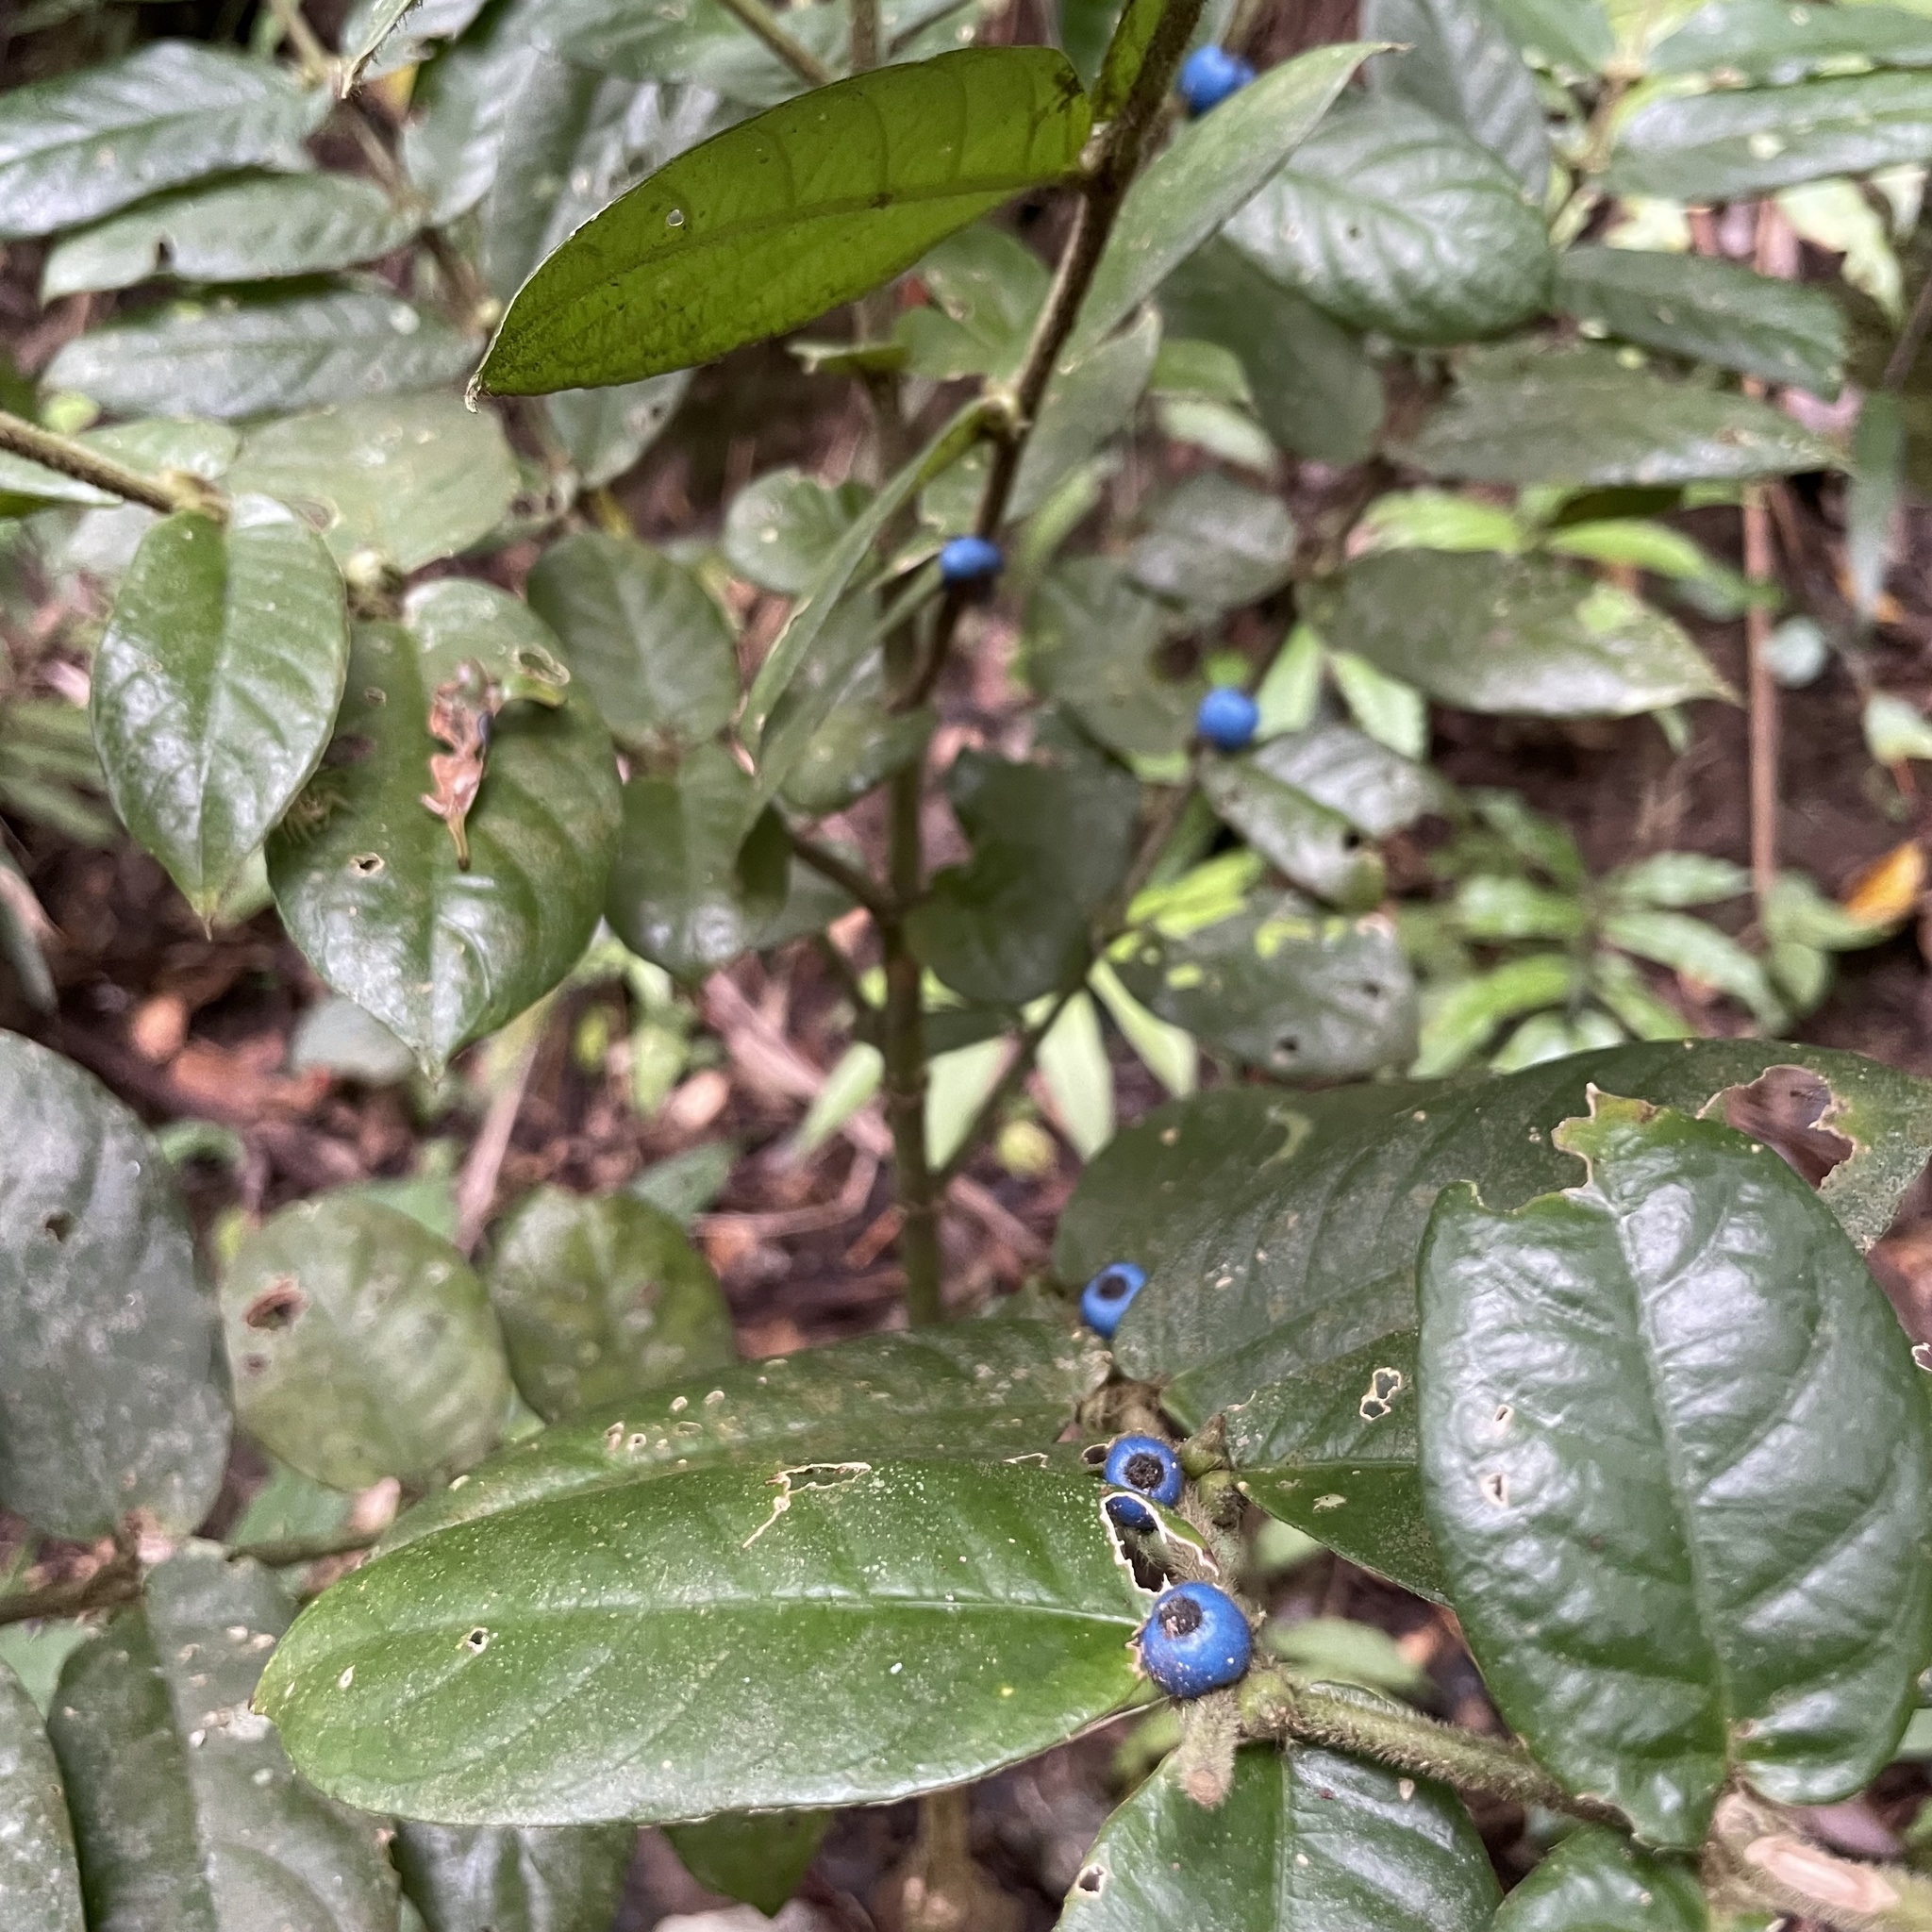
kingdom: Plantae
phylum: Tracheophyta
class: Magnoliopsida
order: Gentianales
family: Rubiaceae
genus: Lasianthus
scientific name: Lasianthus attenuatus
